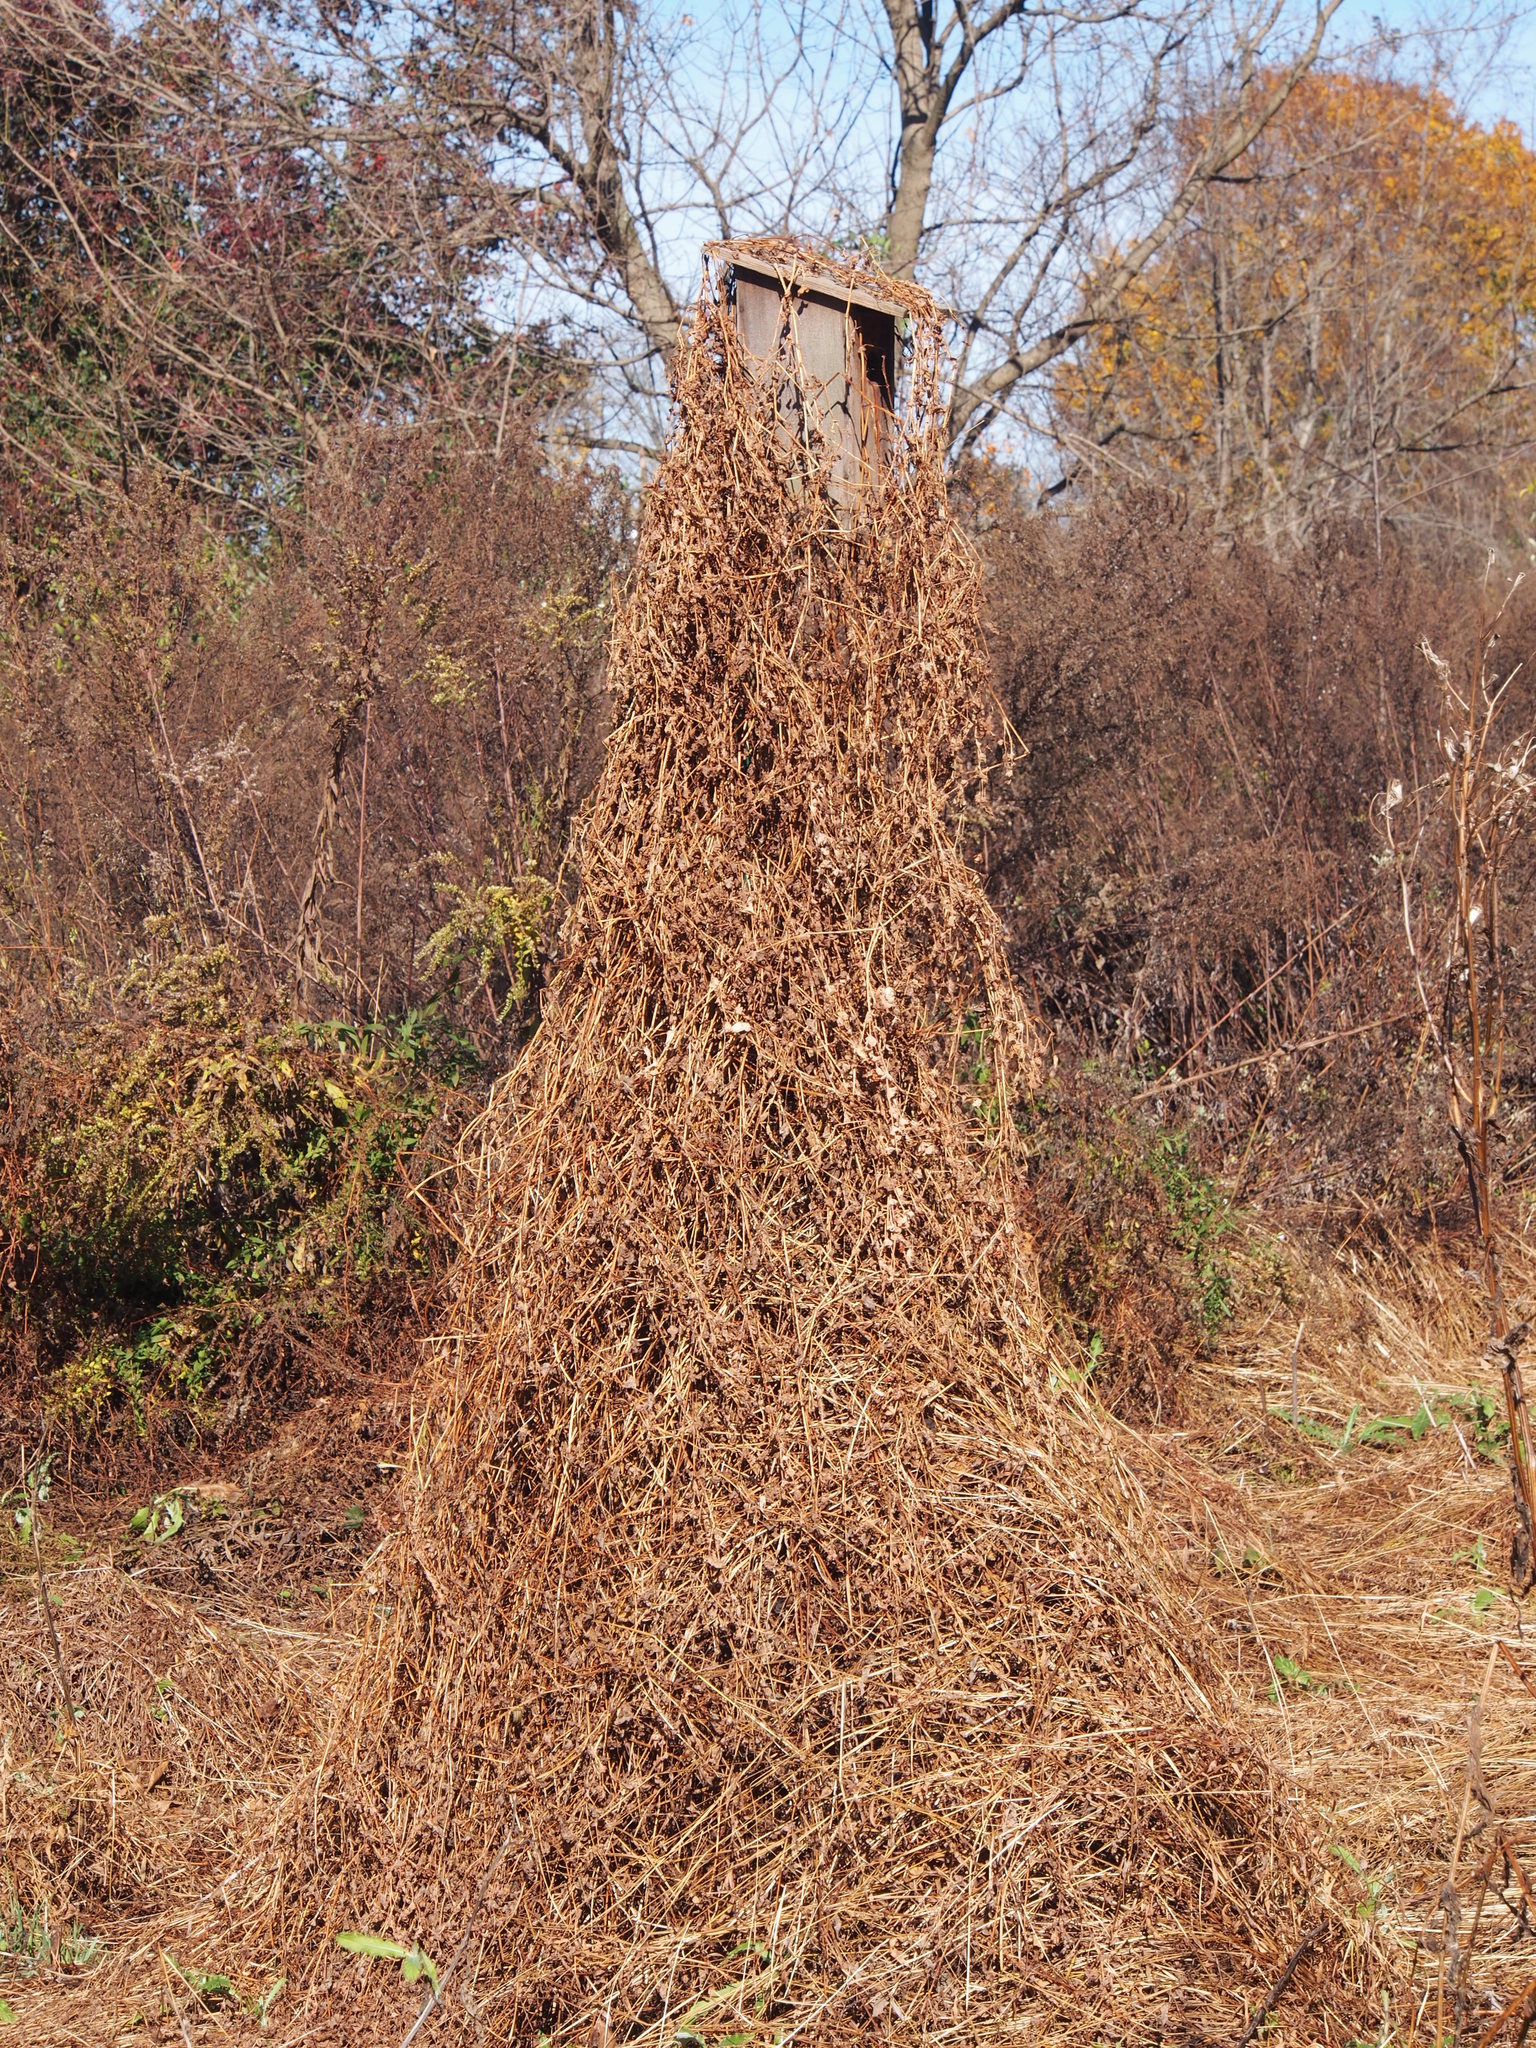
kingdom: Plantae
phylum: Tracheophyta
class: Magnoliopsida
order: Caryophyllales
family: Polygonaceae
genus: Persicaria
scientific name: Persicaria perfoliata
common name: Asiatic tearthumb
